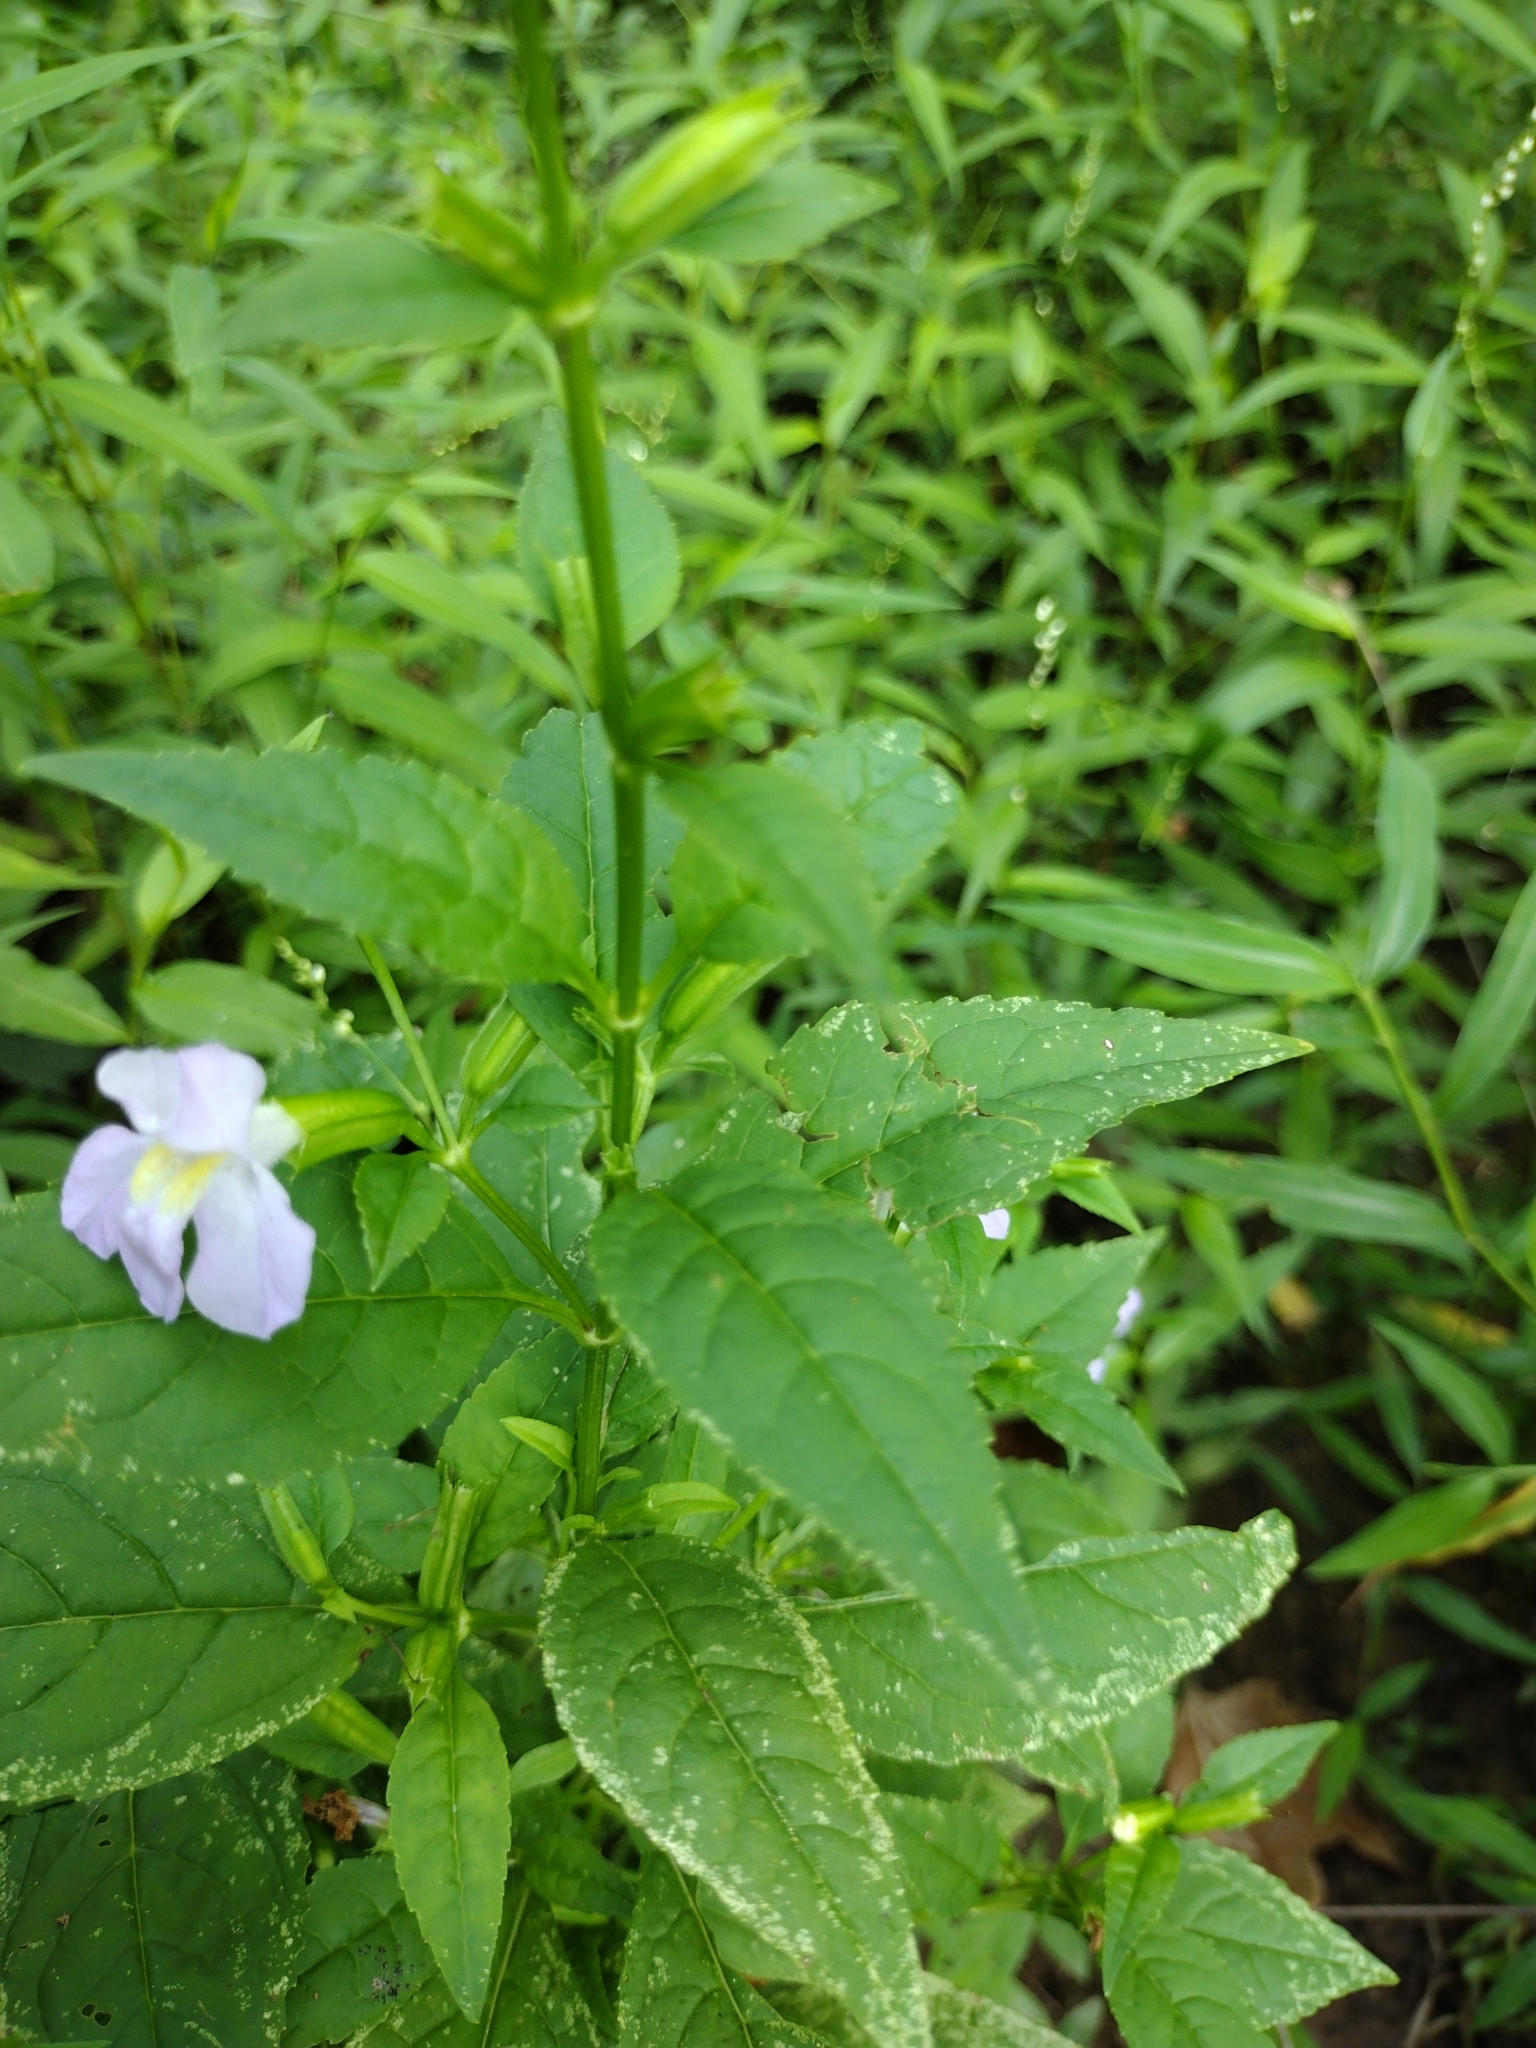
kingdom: Plantae
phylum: Tracheophyta
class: Magnoliopsida
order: Lamiales
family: Phrymaceae
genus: Mimulus
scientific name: Mimulus alatus
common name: Sharp-wing monkey-flower
